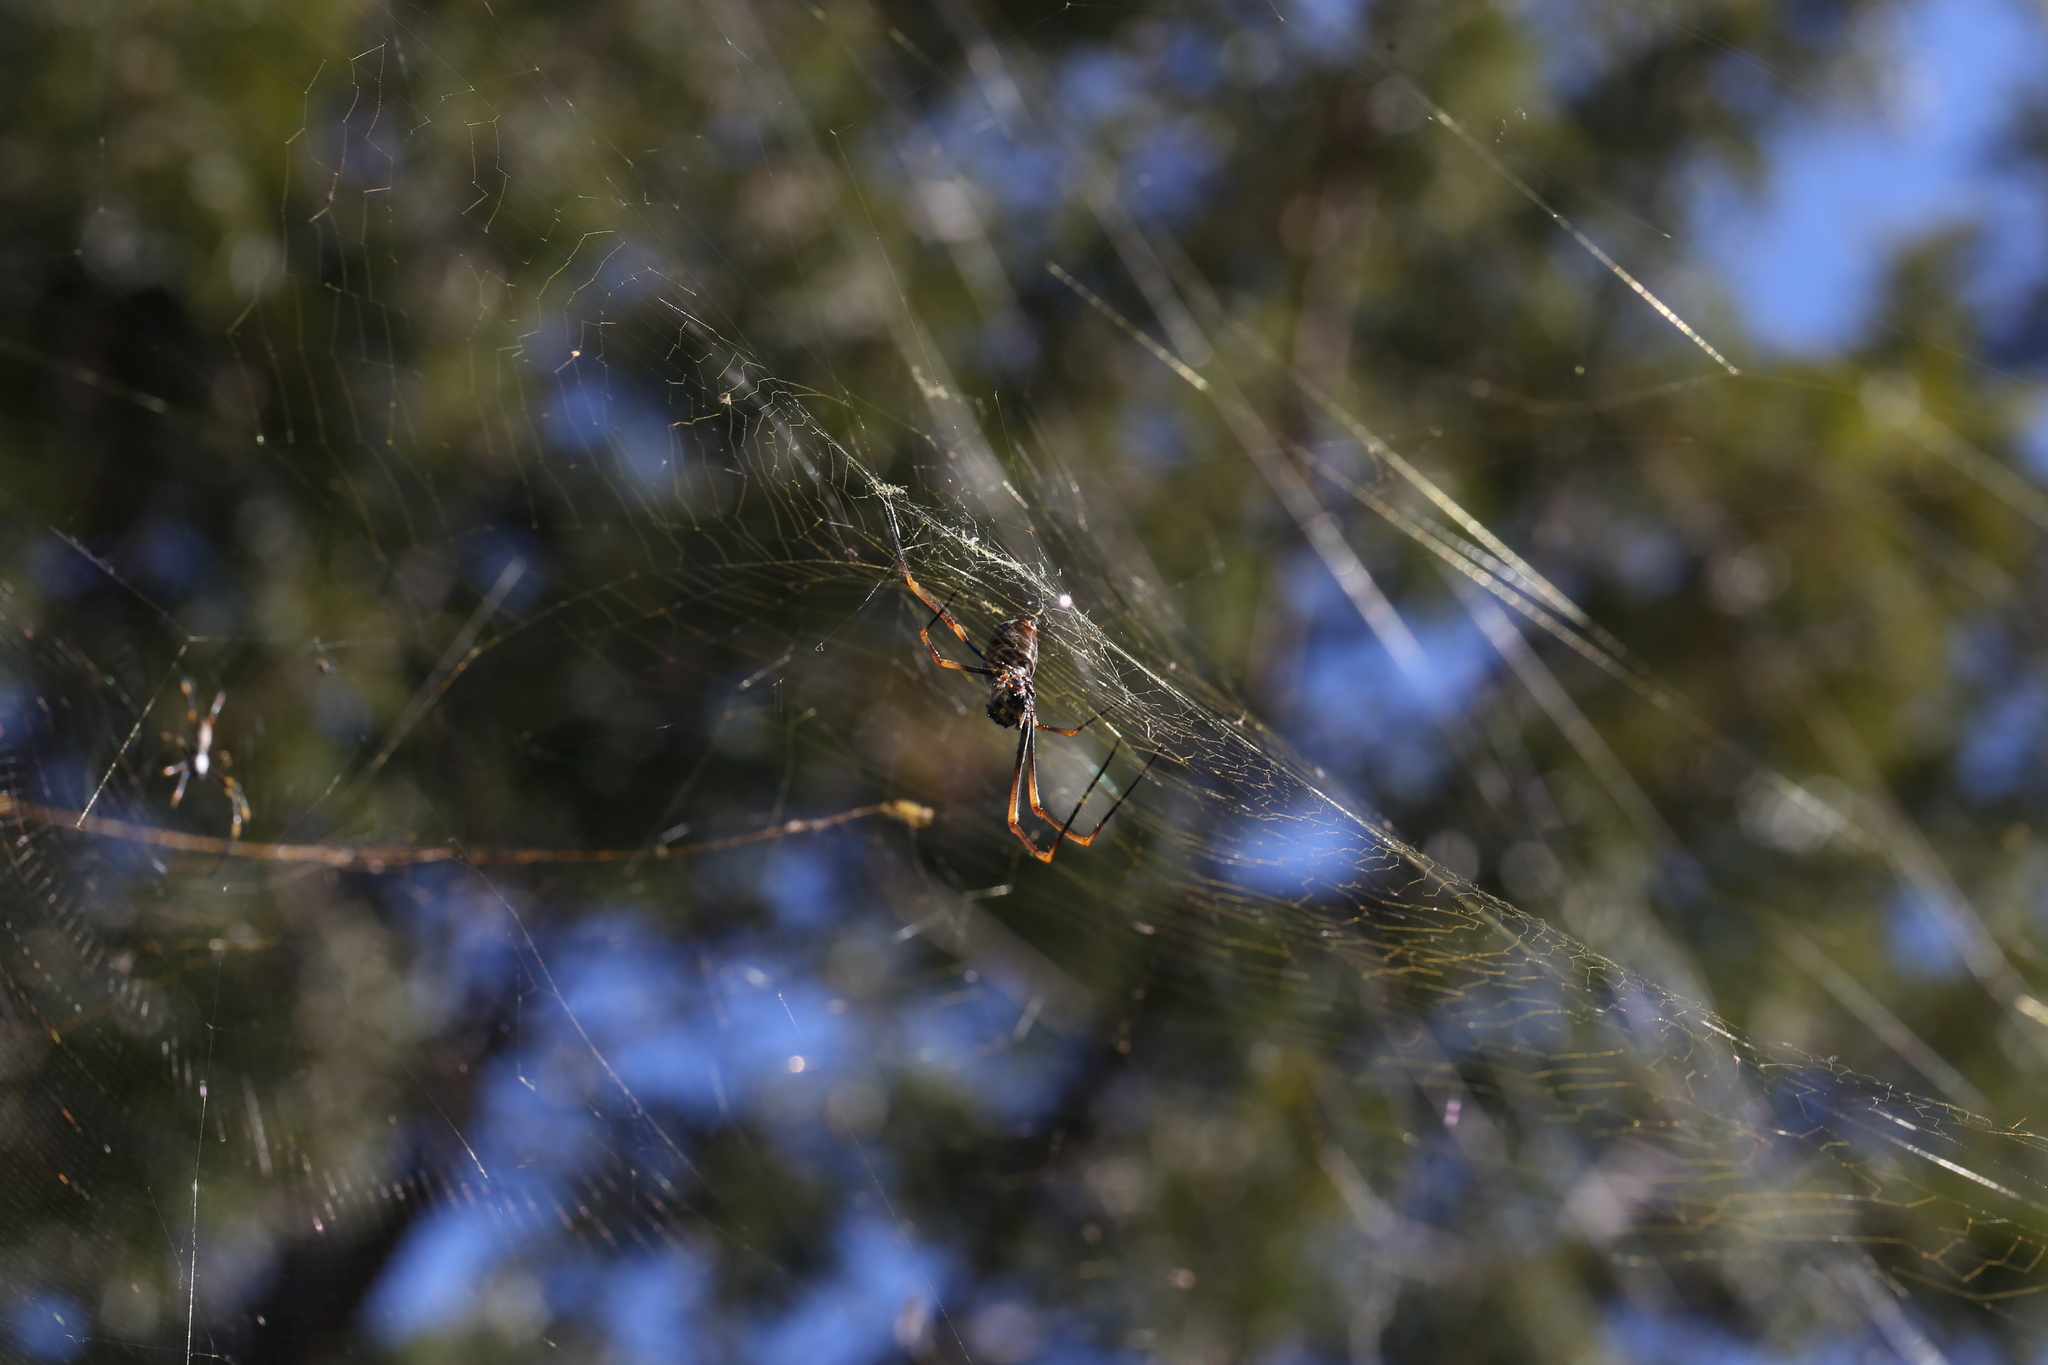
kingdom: Animalia
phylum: Arthropoda
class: Arachnida
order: Araneae
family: Araneidae
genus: Trichonephila
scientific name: Trichonephila plumipes
